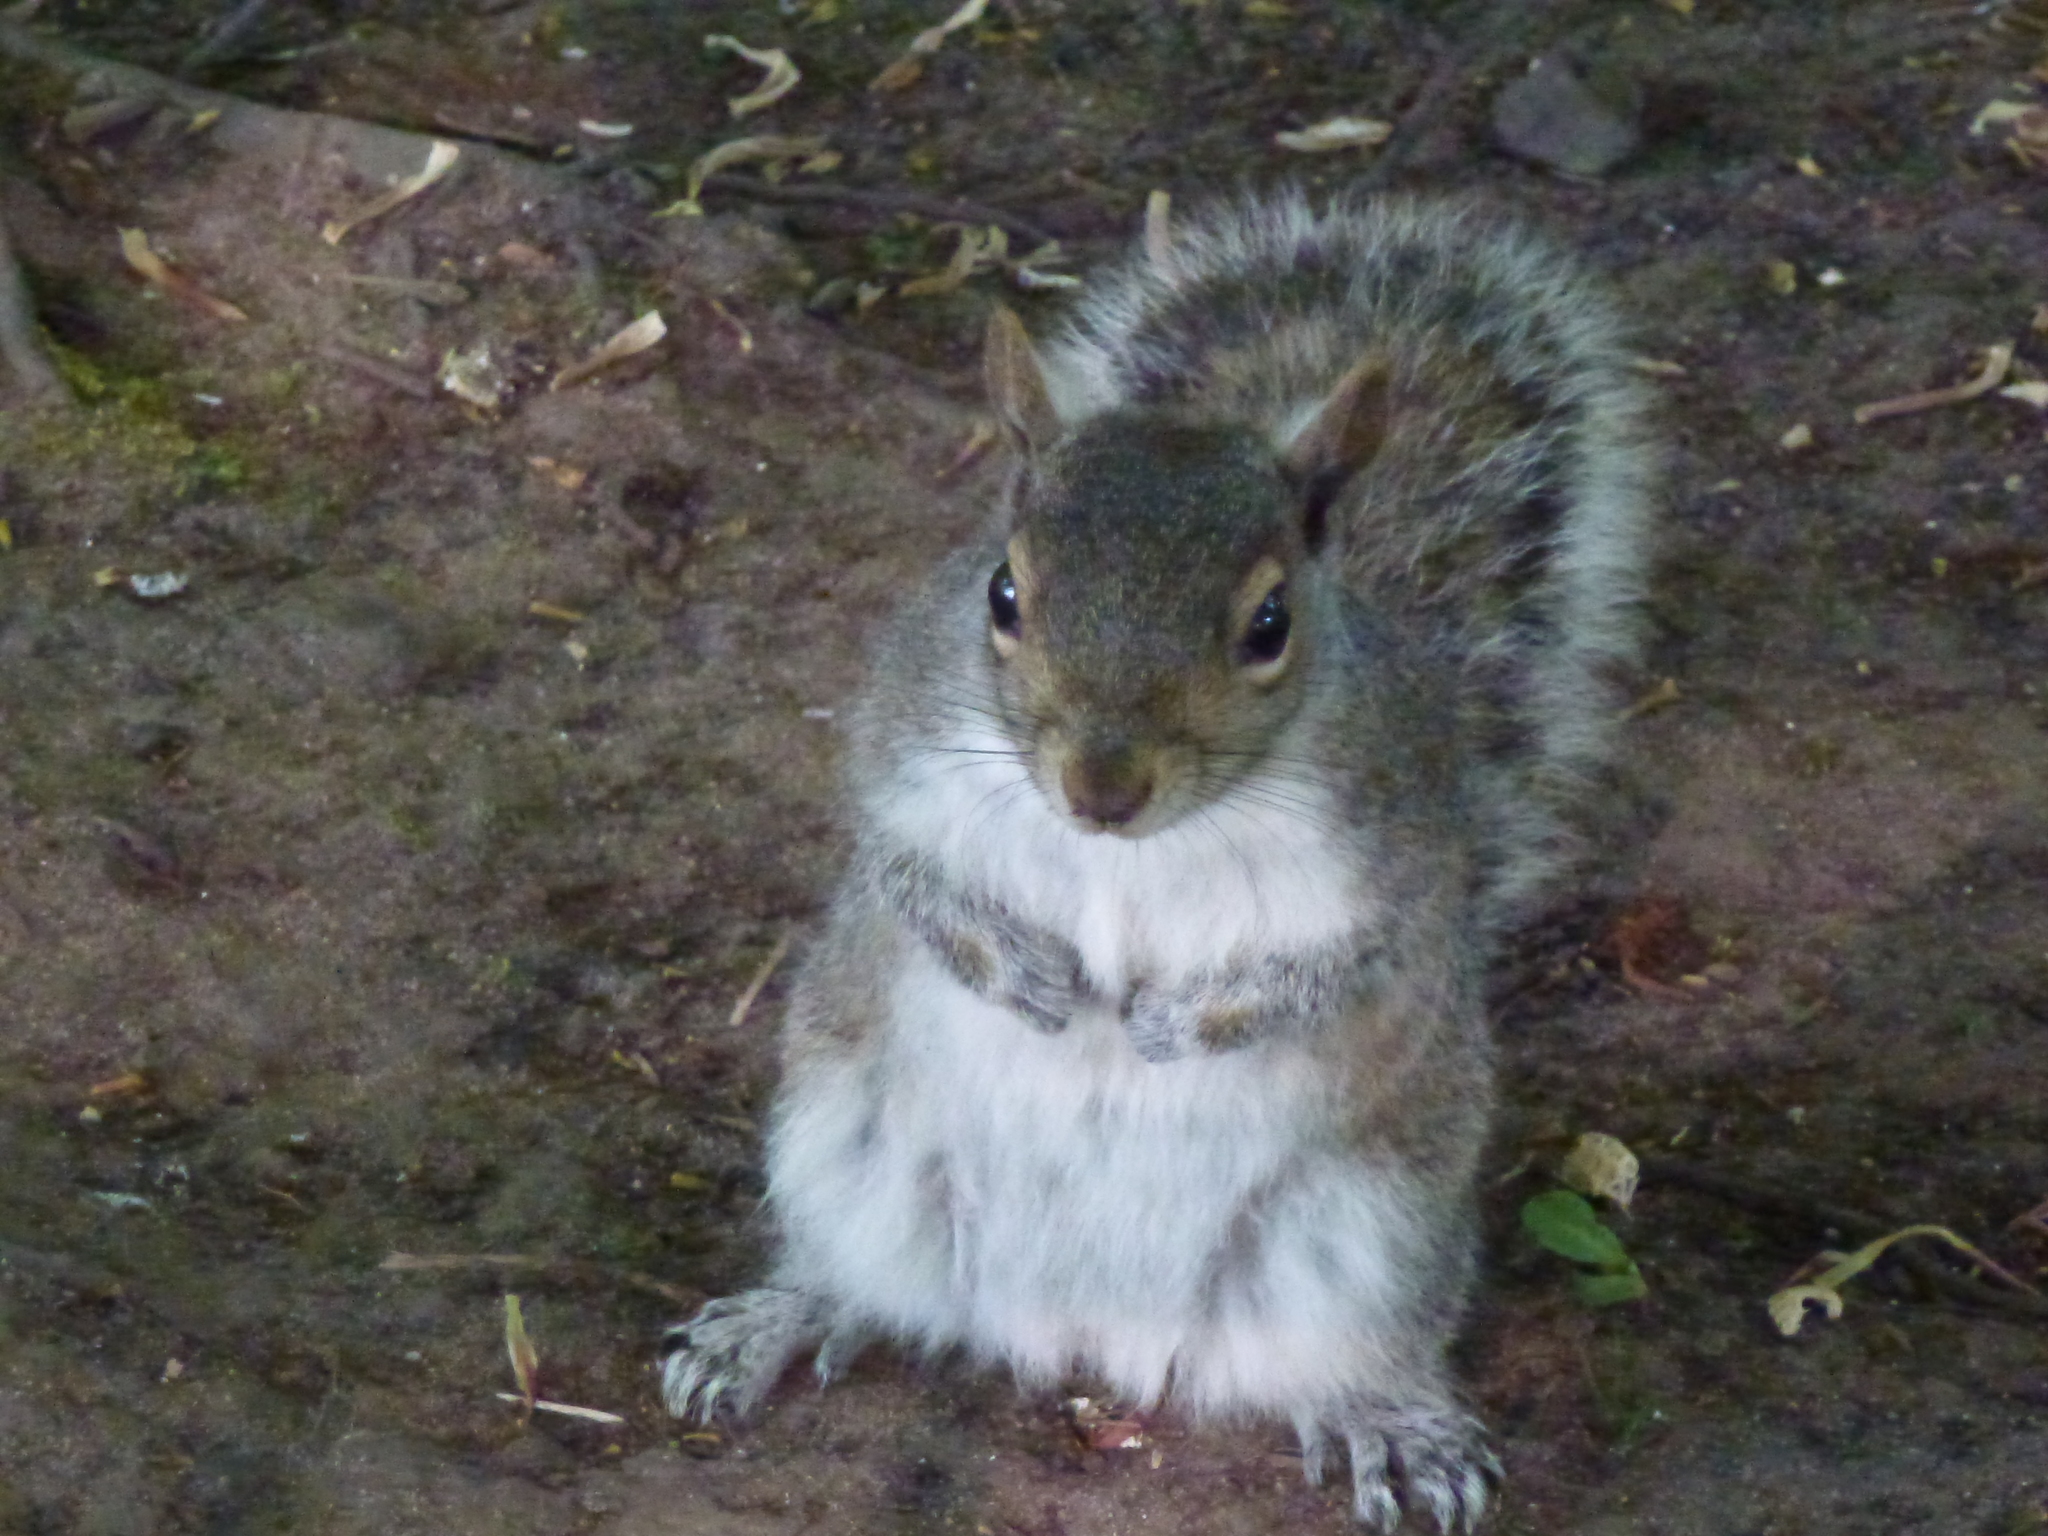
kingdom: Animalia
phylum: Chordata
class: Mammalia
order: Rodentia
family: Sciuridae
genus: Sciurus
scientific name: Sciurus carolinensis
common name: Eastern gray squirrel
